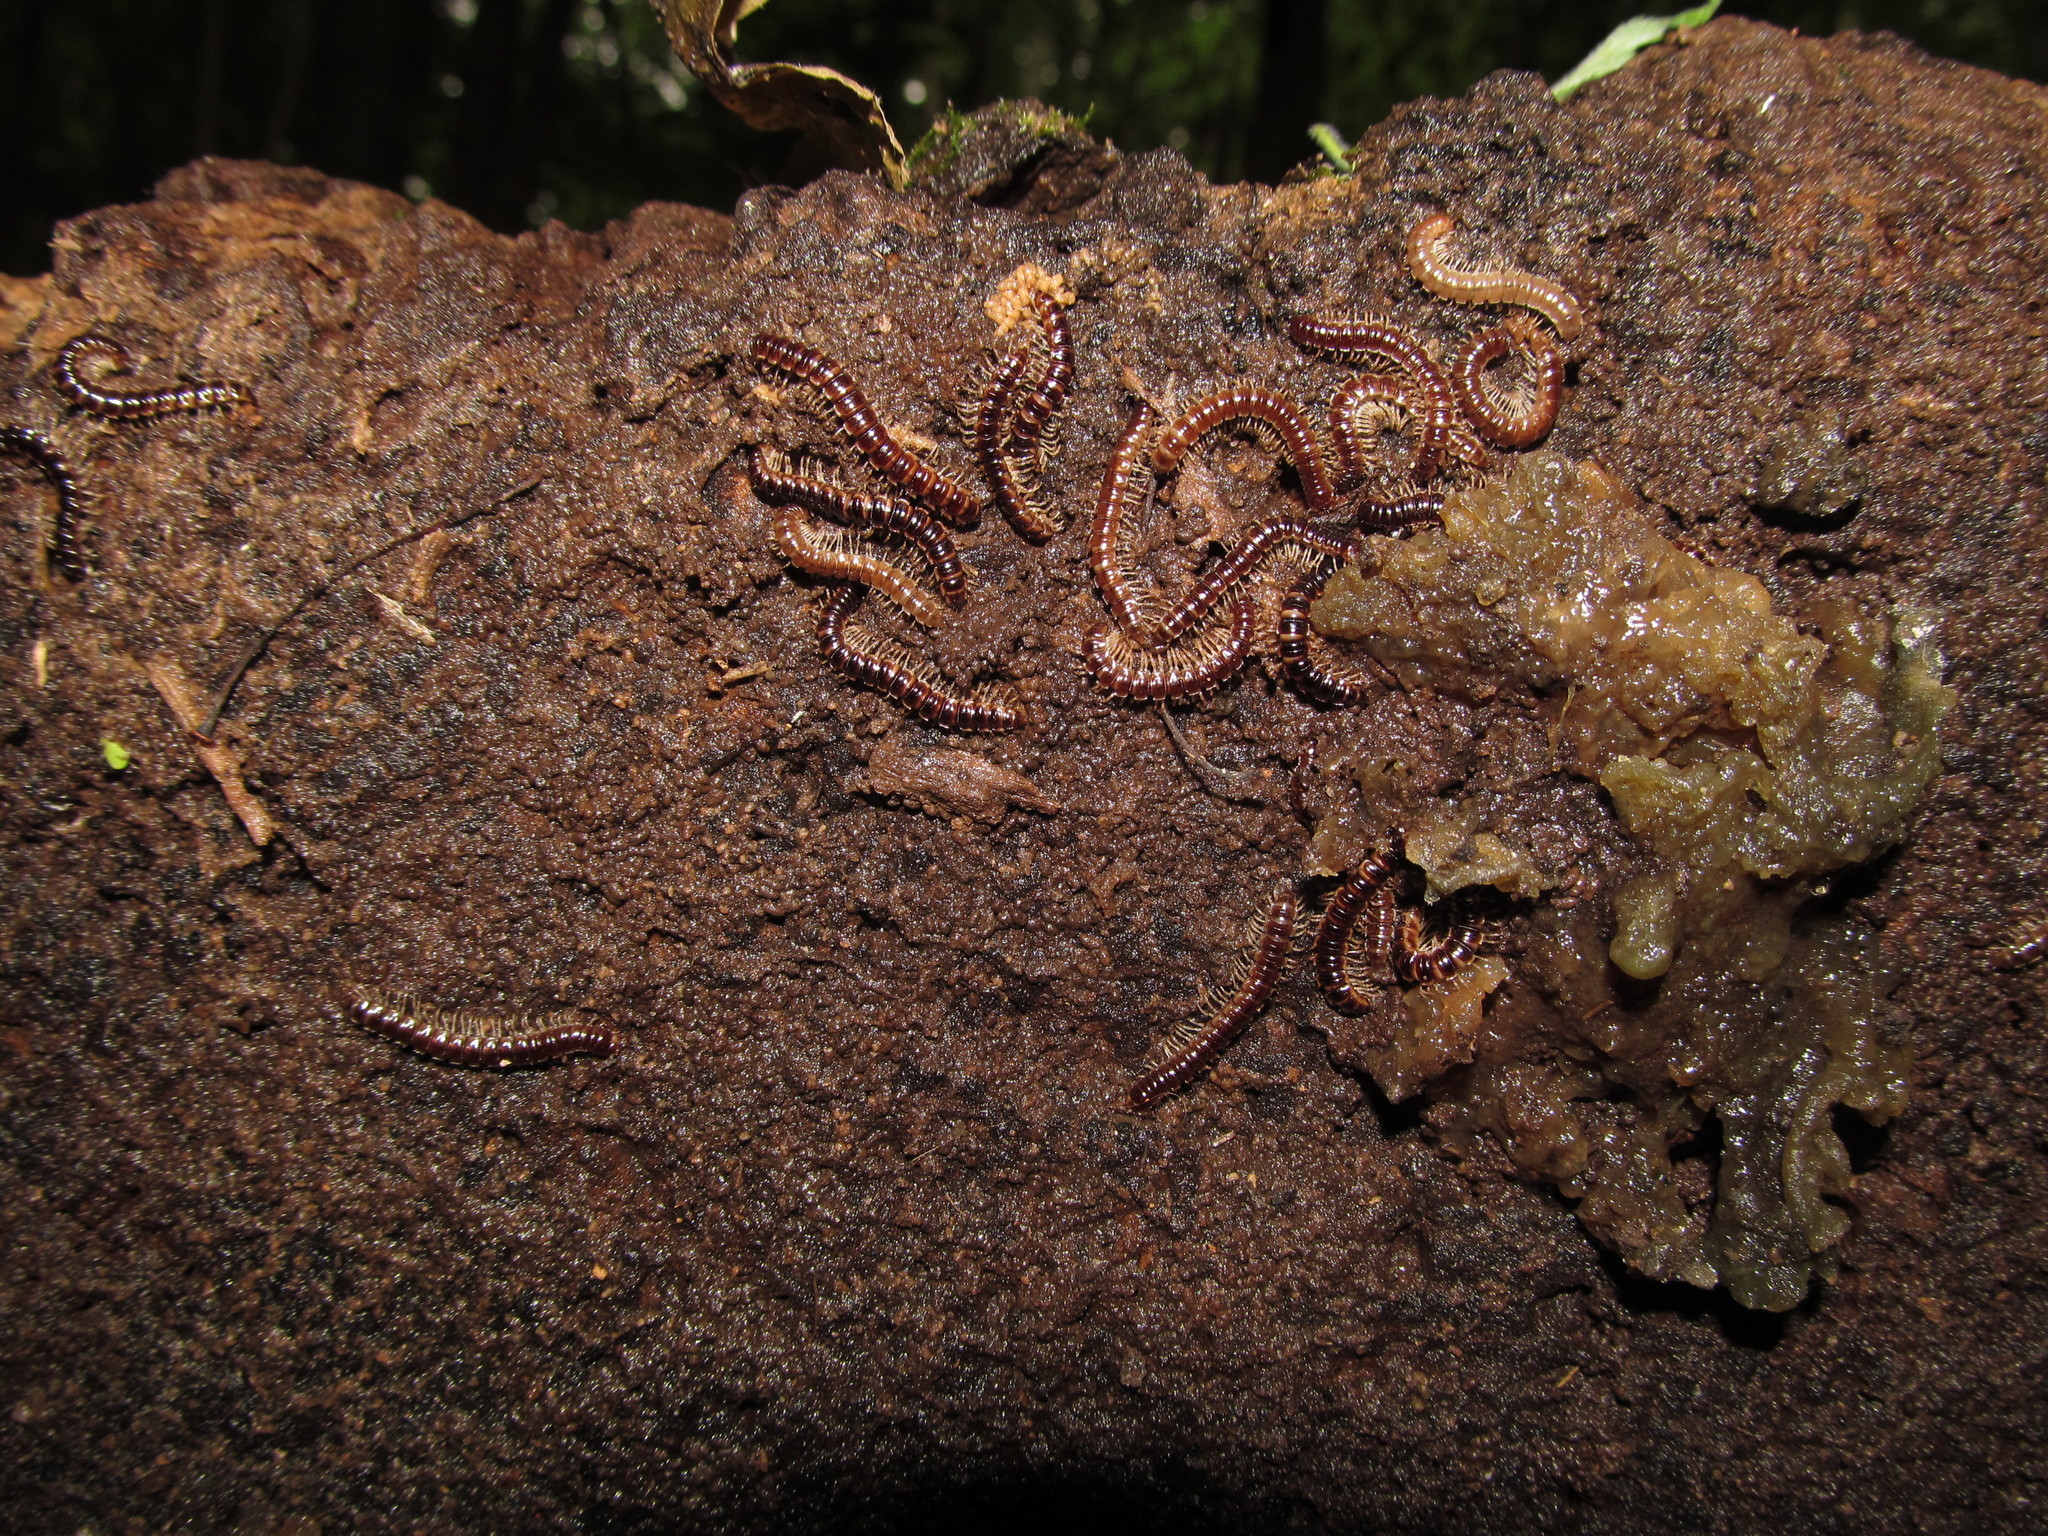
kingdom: Animalia
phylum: Arthropoda
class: Diplopoda
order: Polydesmida
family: Paradoxosomatidae
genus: Oxidus
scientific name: Oxidus gracilis
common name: Greenhouse millipede
